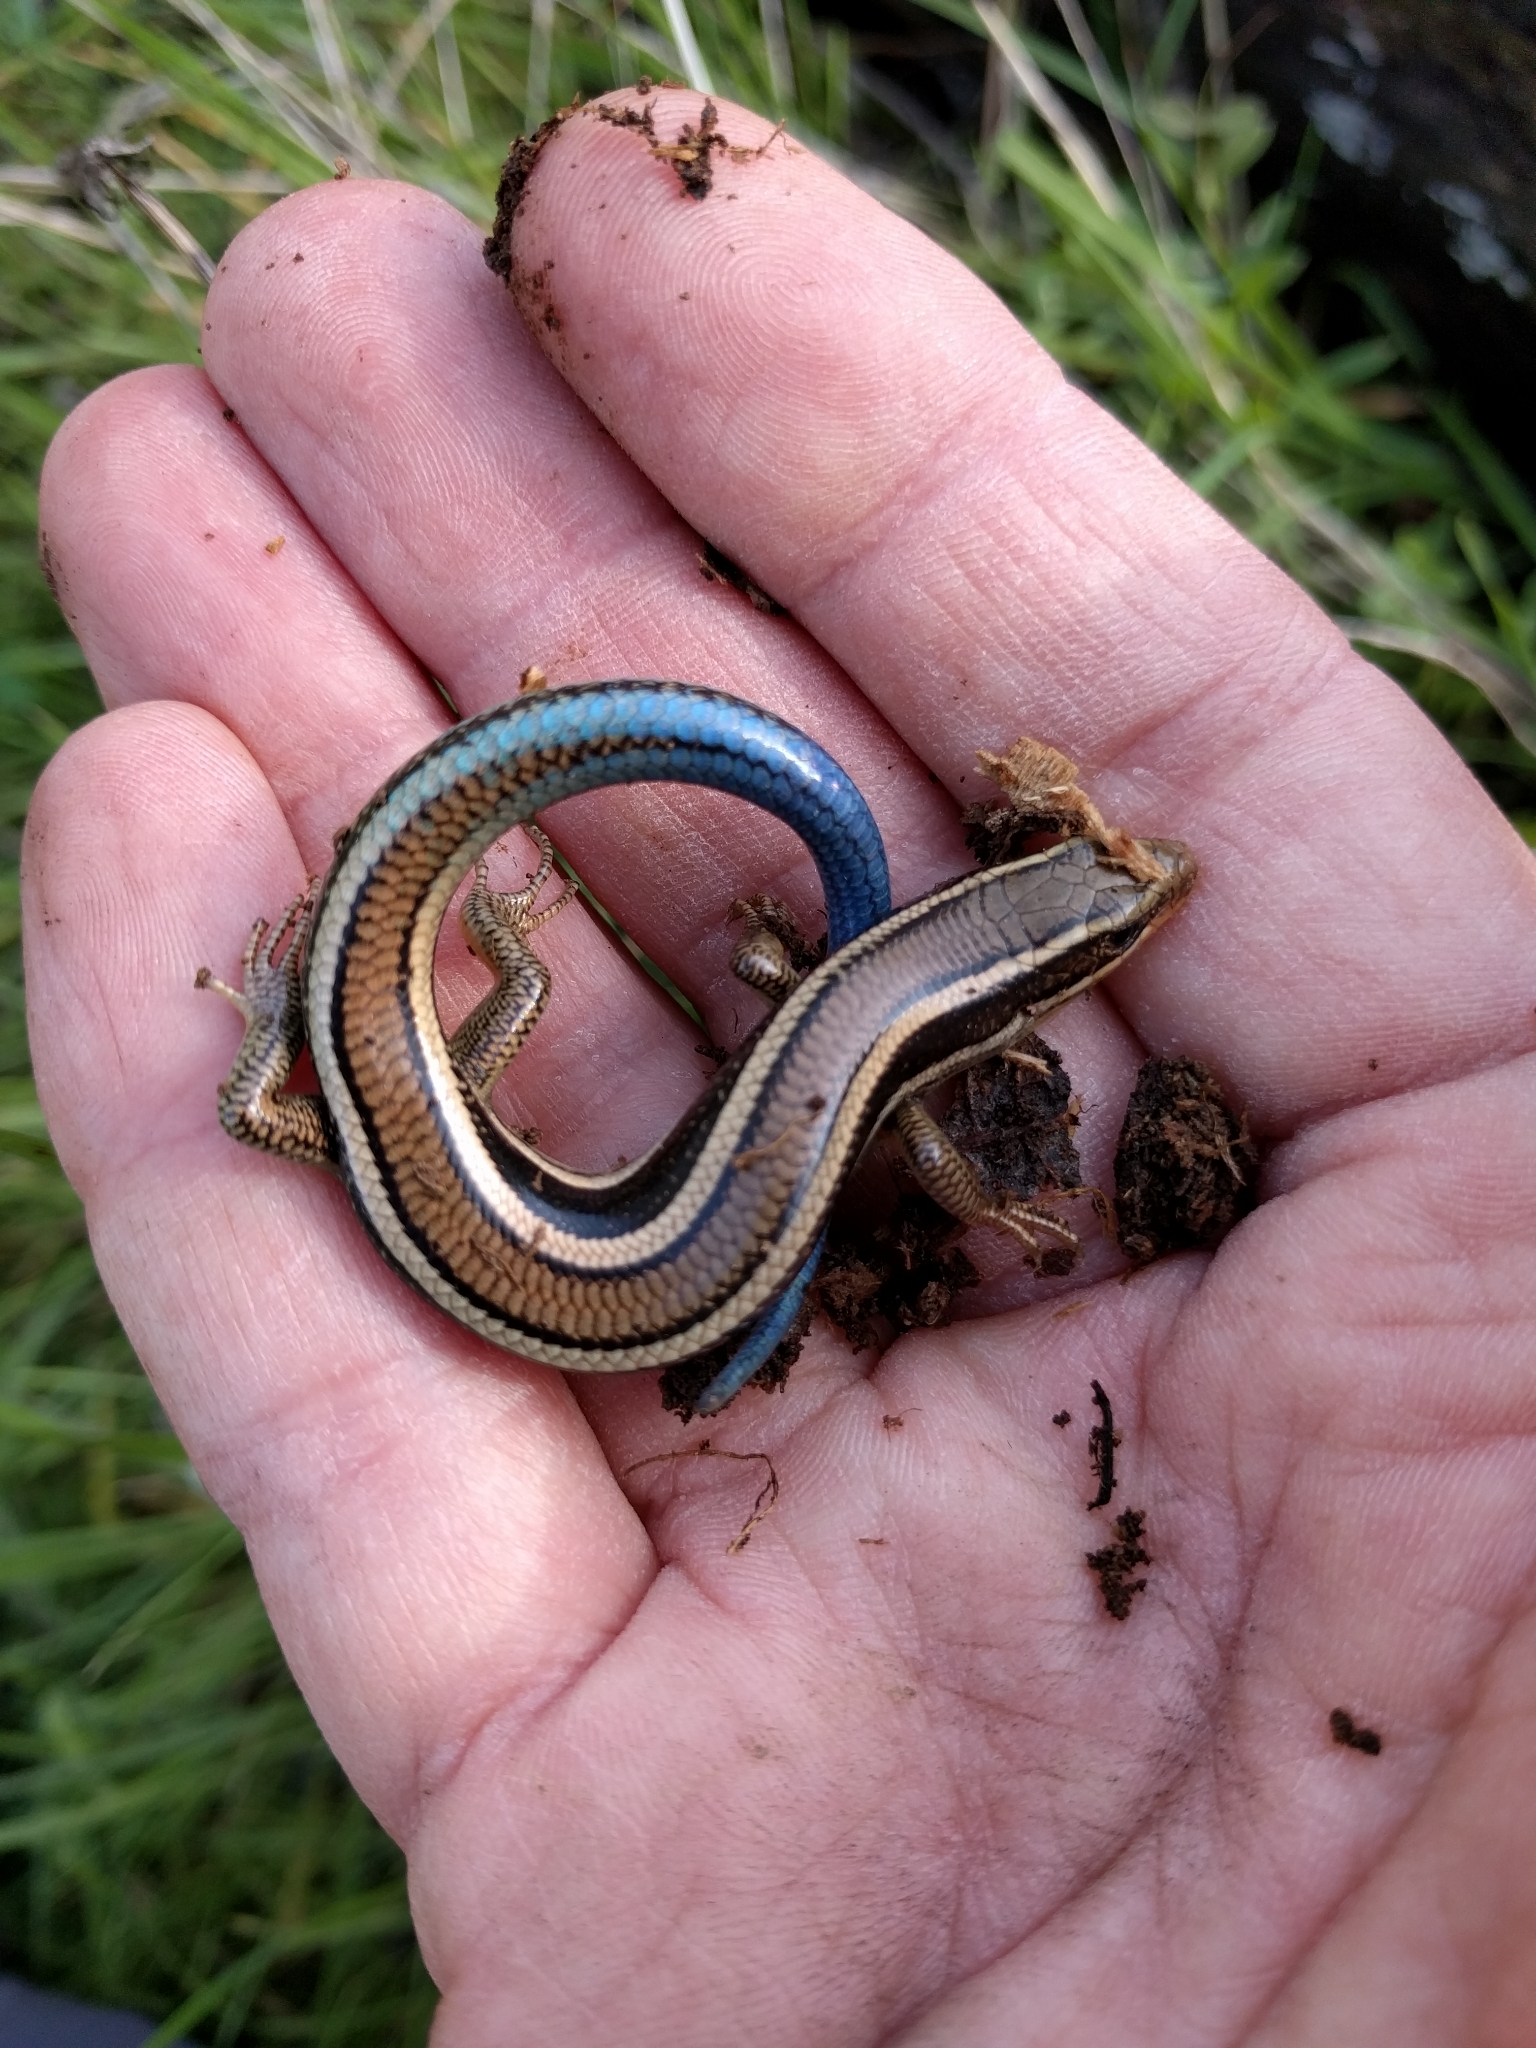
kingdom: Animalia
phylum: Chordata
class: Squamata
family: Scincidae
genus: Plestiodon
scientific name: Plestiodon skiltonianus
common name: Coronado island skink [interparietalis]
